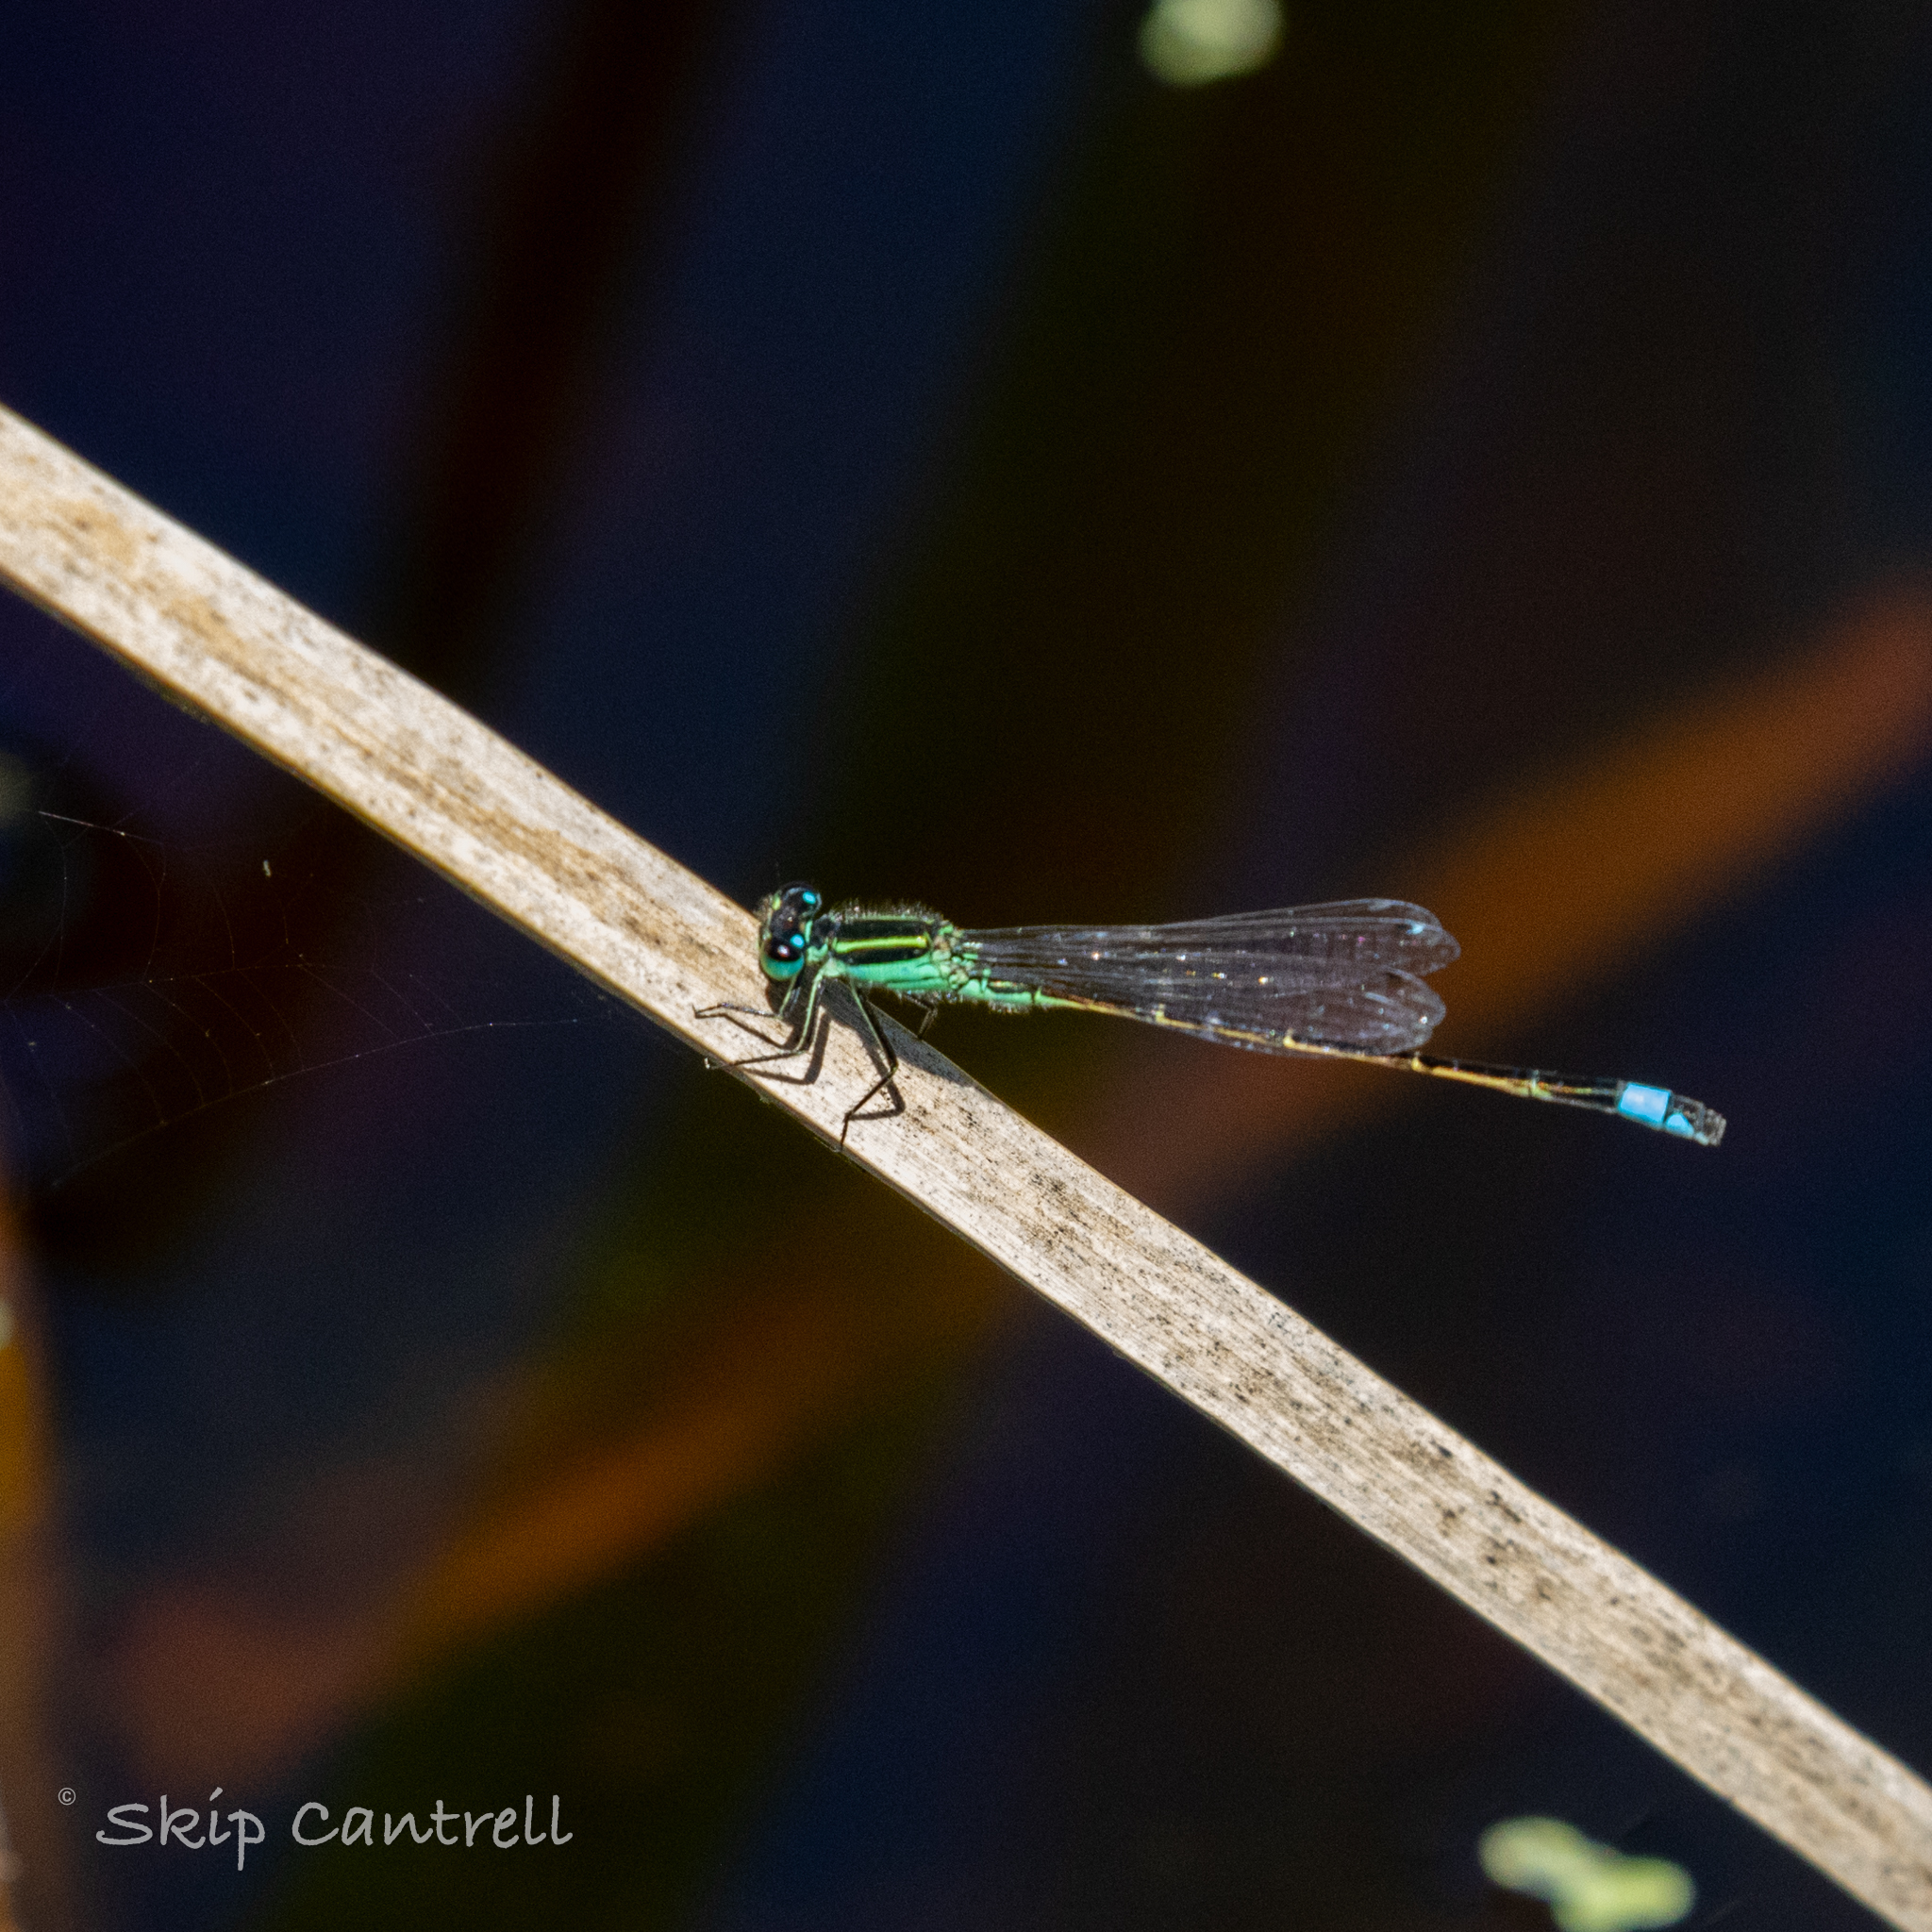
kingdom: Animalia
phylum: Arthropoda
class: Insecta
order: Odonata
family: Coenagrionidae
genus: Ischnura
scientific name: Ischnura ramburii
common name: Rambur's forktail
